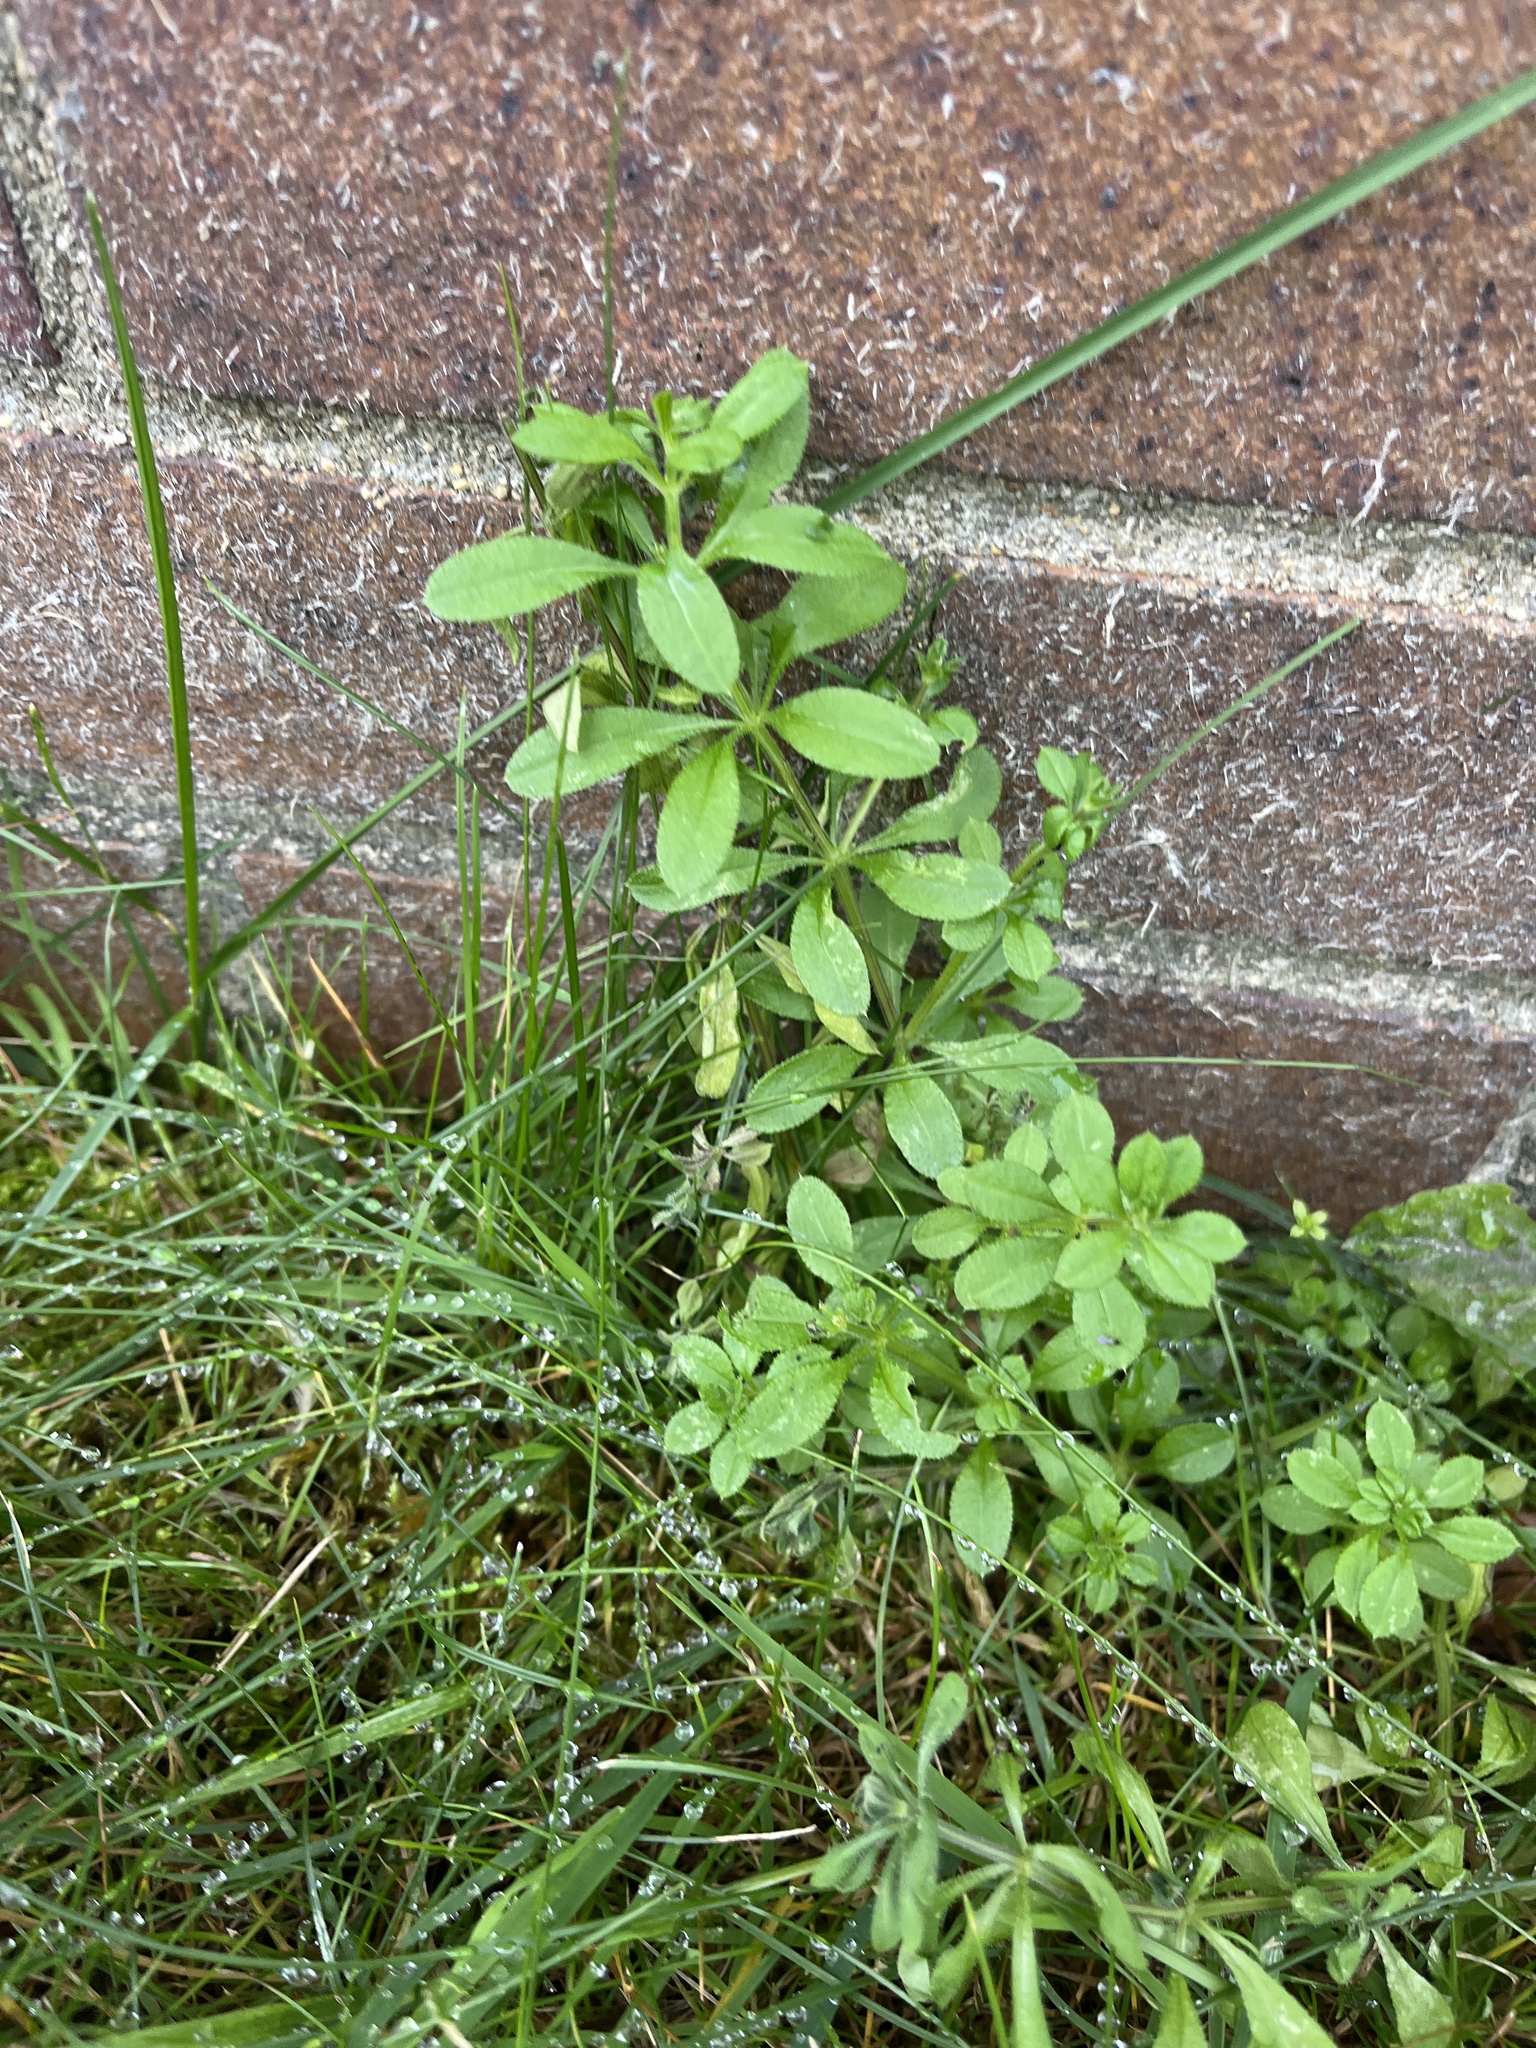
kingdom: Plantae
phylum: Tracheophyta
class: Magnoliopsida
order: Gentianales
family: Rubiaceae
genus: Galium
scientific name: Galium aparine
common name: Cleavers
